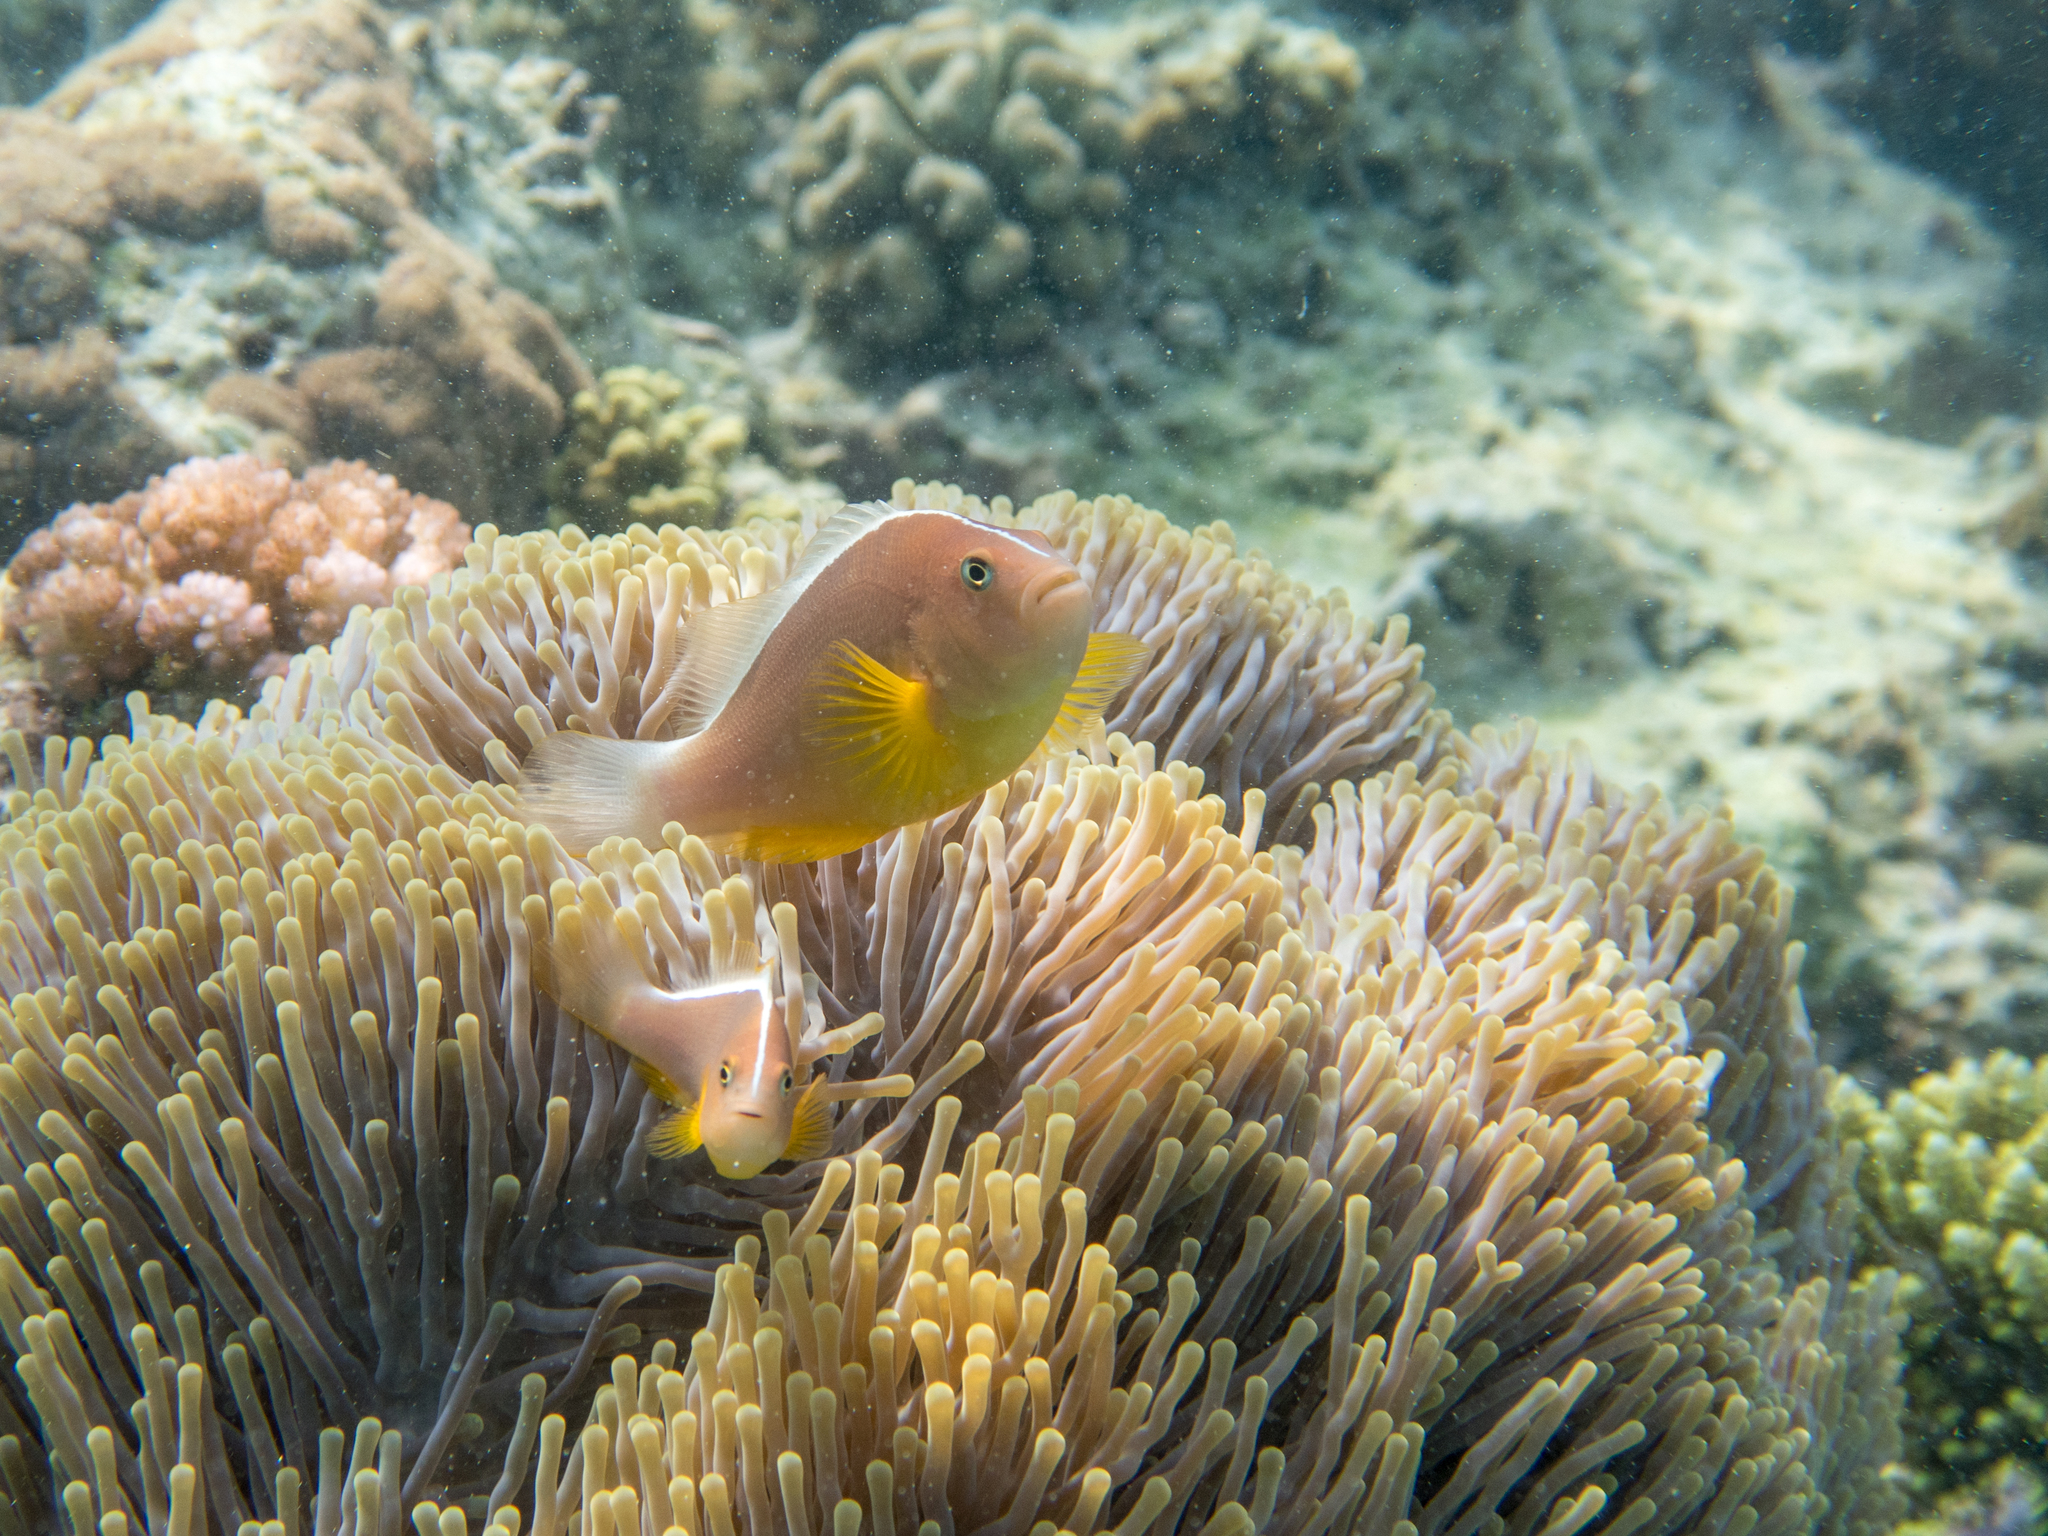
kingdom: Animalia
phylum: Chordata
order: Perciformes
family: Pomacentridae
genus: Amphiprion
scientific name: Amphiprion akallopisos
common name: Skunk clownfish
